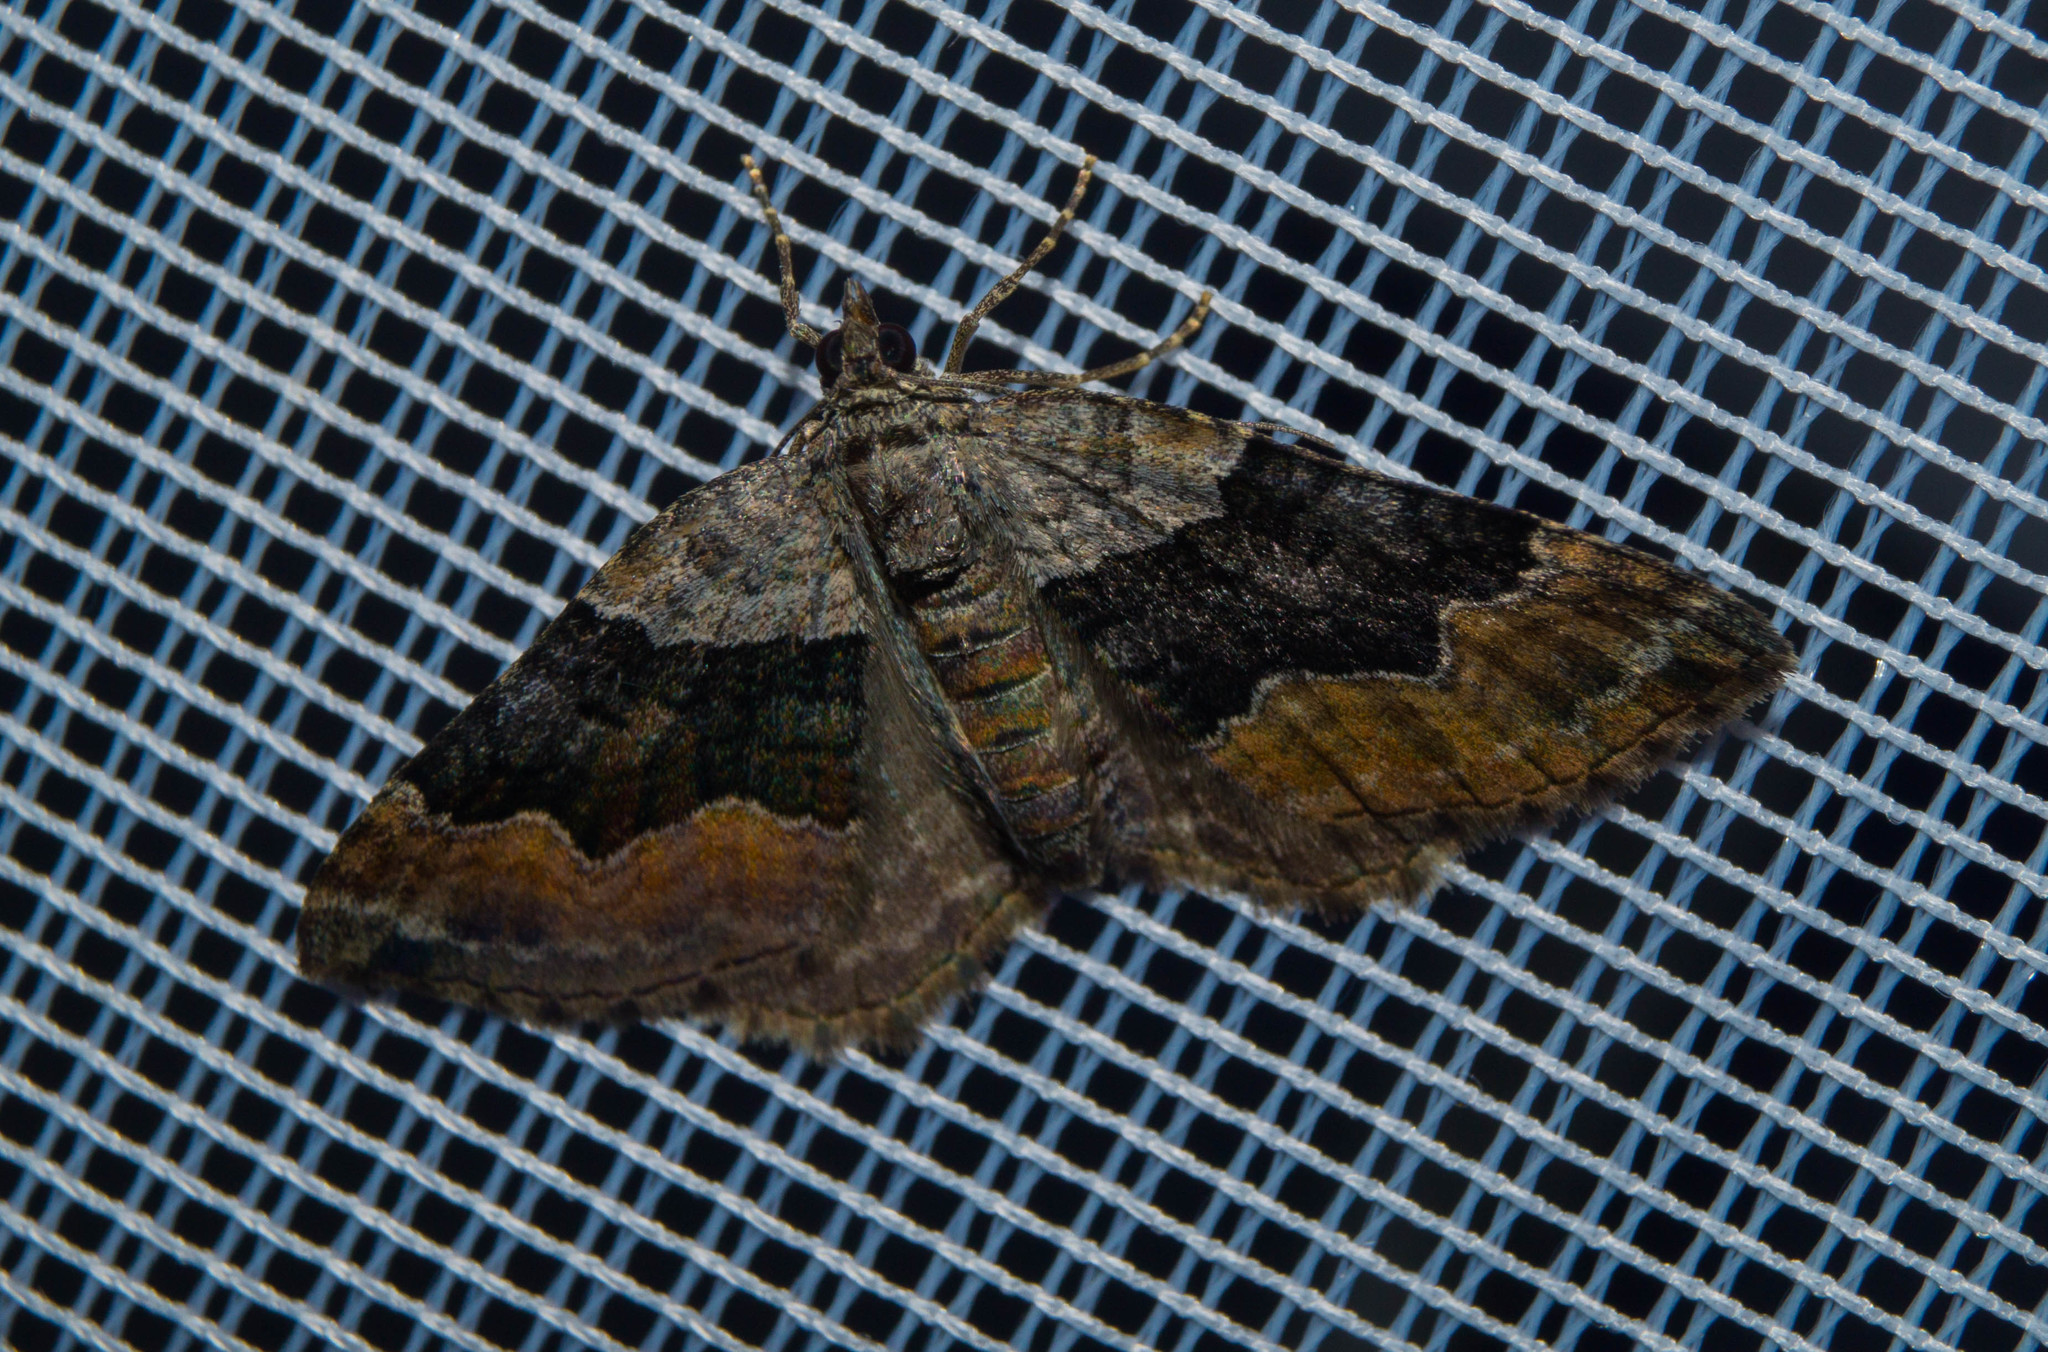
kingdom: Animalia
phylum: Arthropoda
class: Insecta
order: Lepidoptera
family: Geometridae
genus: Xanthorhoe
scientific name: Xanthorhoe quadrifasiata
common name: Large twin-spot carpet
